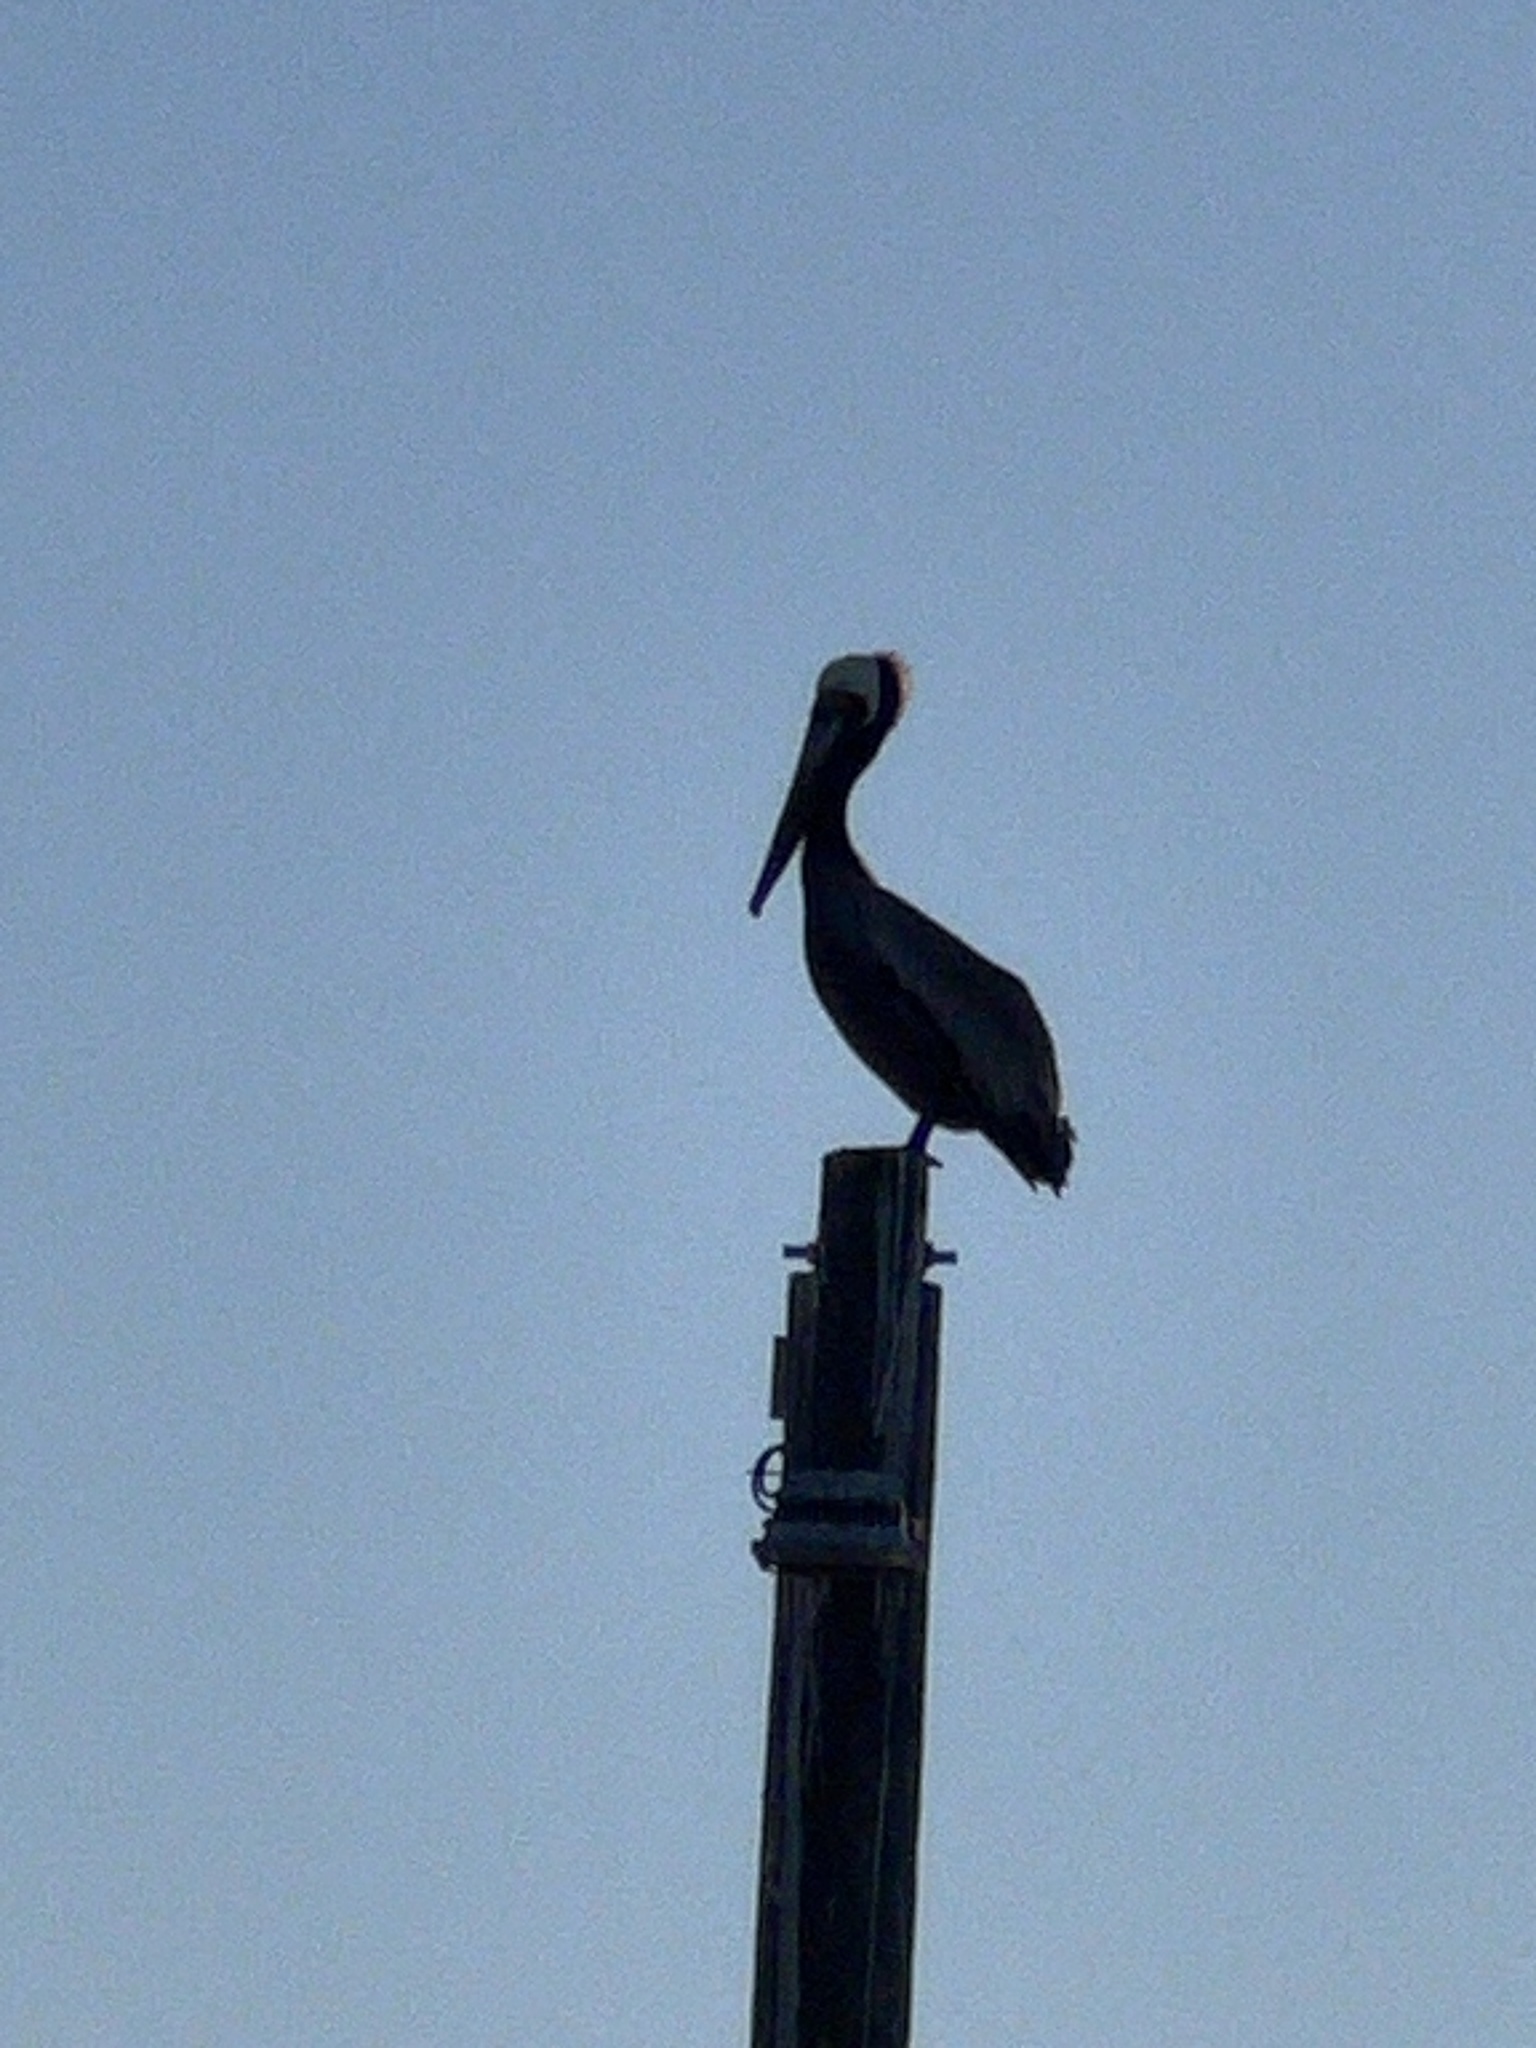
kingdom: Animalia
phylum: Chordata
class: Aves
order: Pelecaniformes
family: Pelecanidae
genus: Pelecanus
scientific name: Pelecanus occidentalis
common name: Brown pelican
